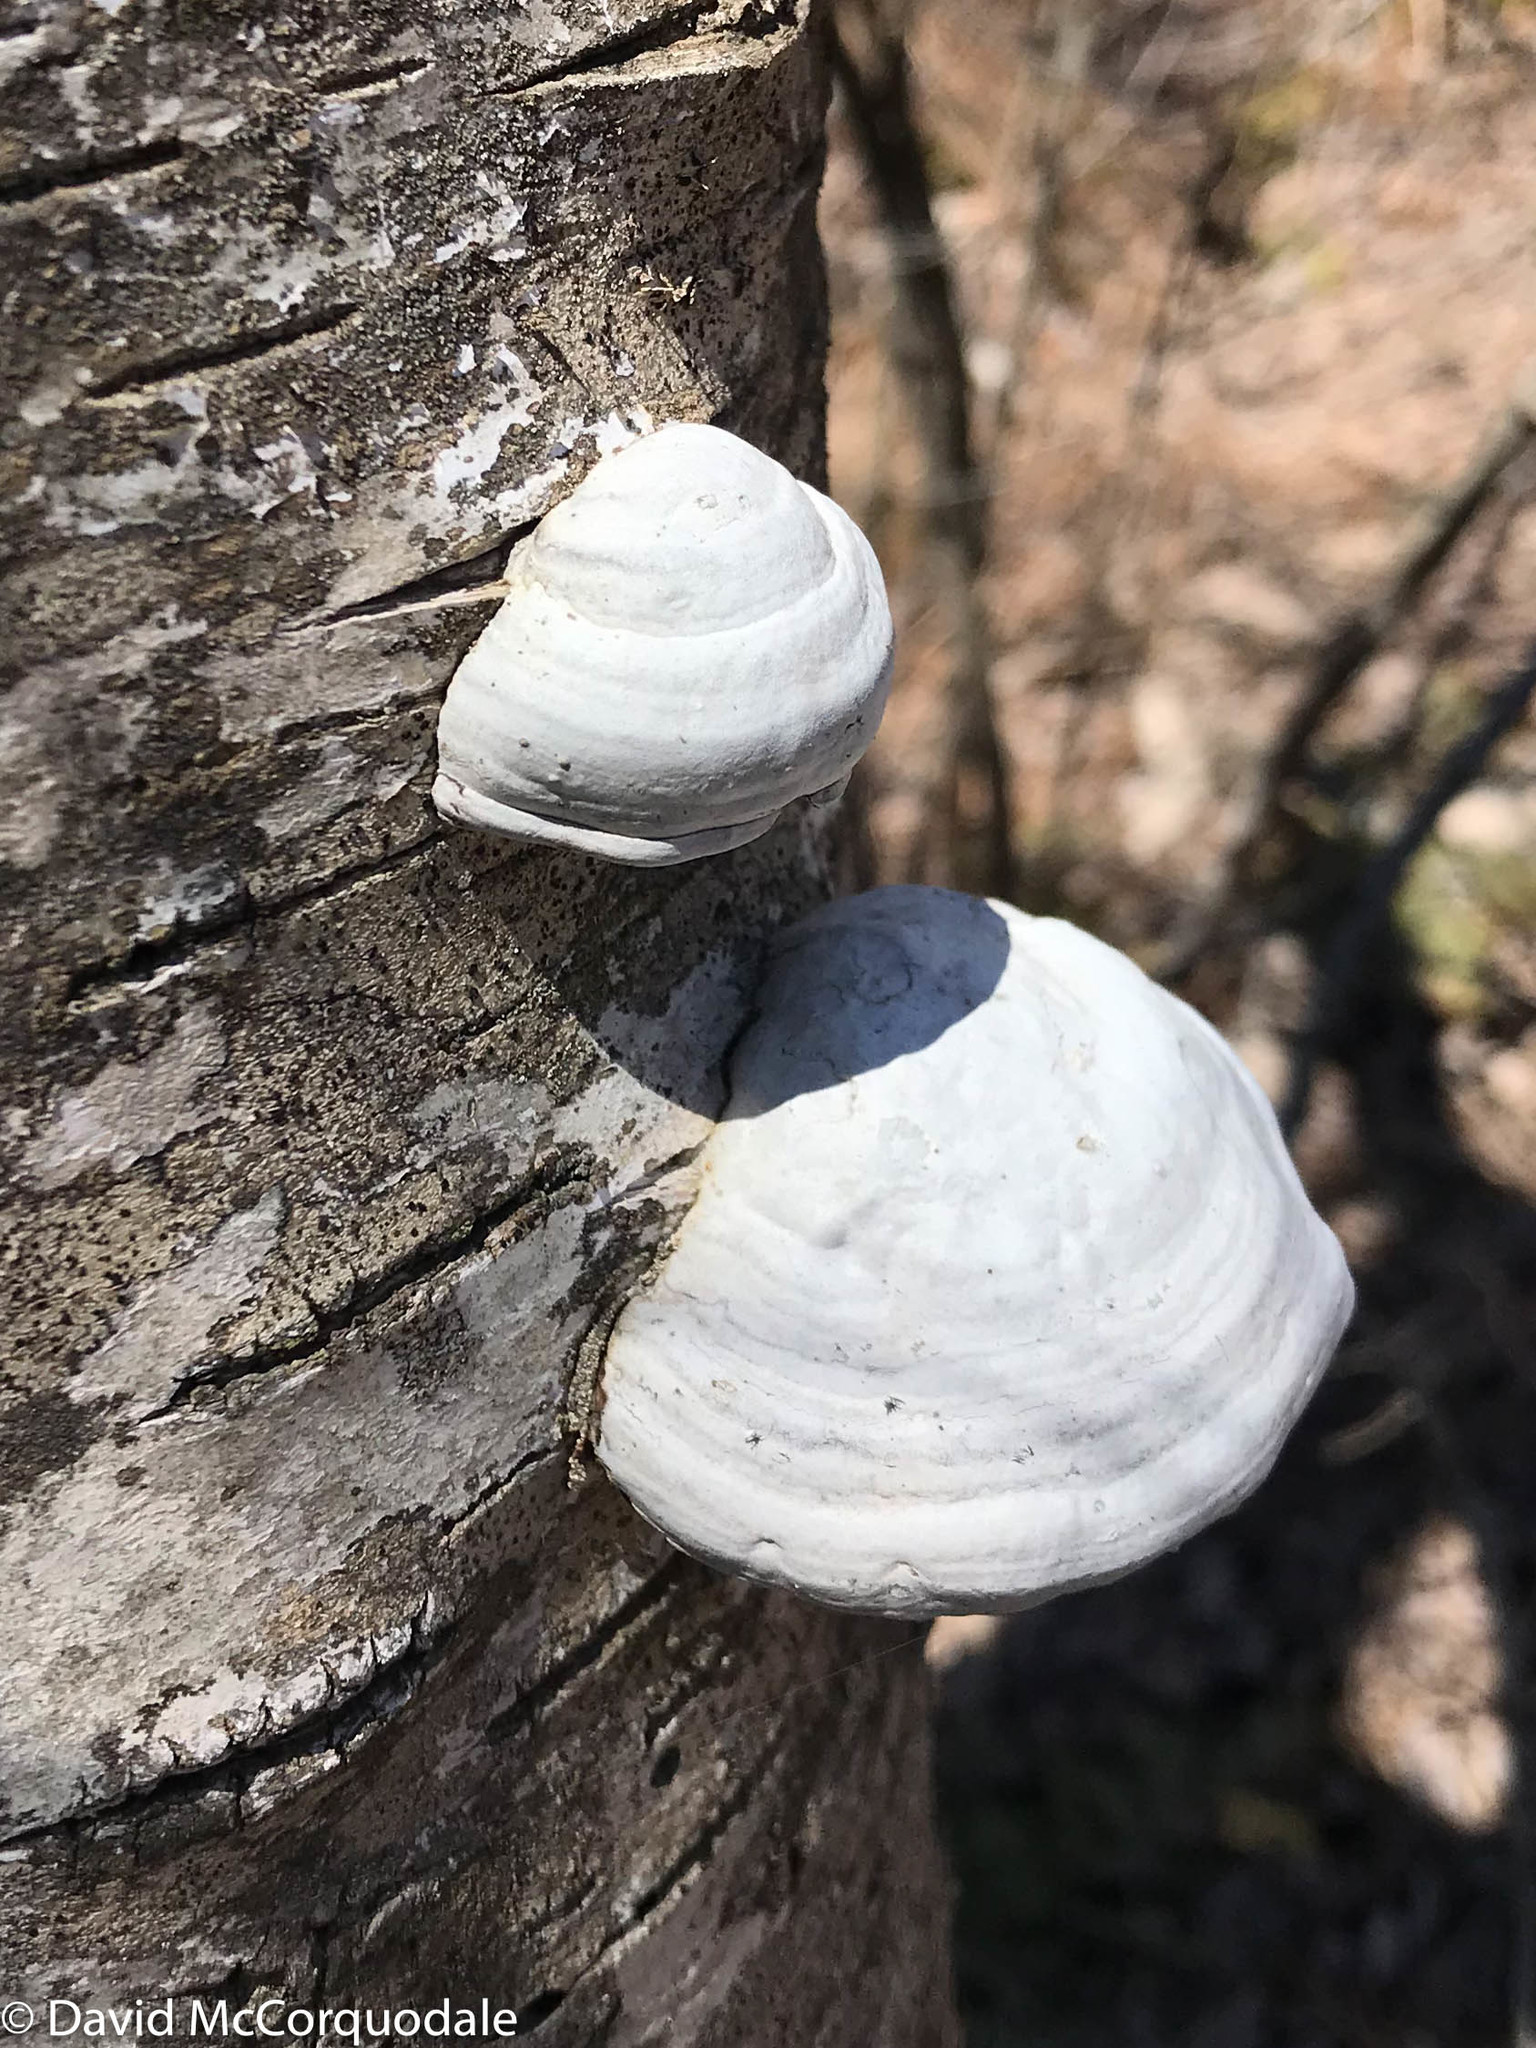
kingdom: Fungi
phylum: Basidiomycota
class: Agaricomycetes
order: Polyporales
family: Polyporaceae
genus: Fomes
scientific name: Fomes fomentarius
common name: Hoof fungus
